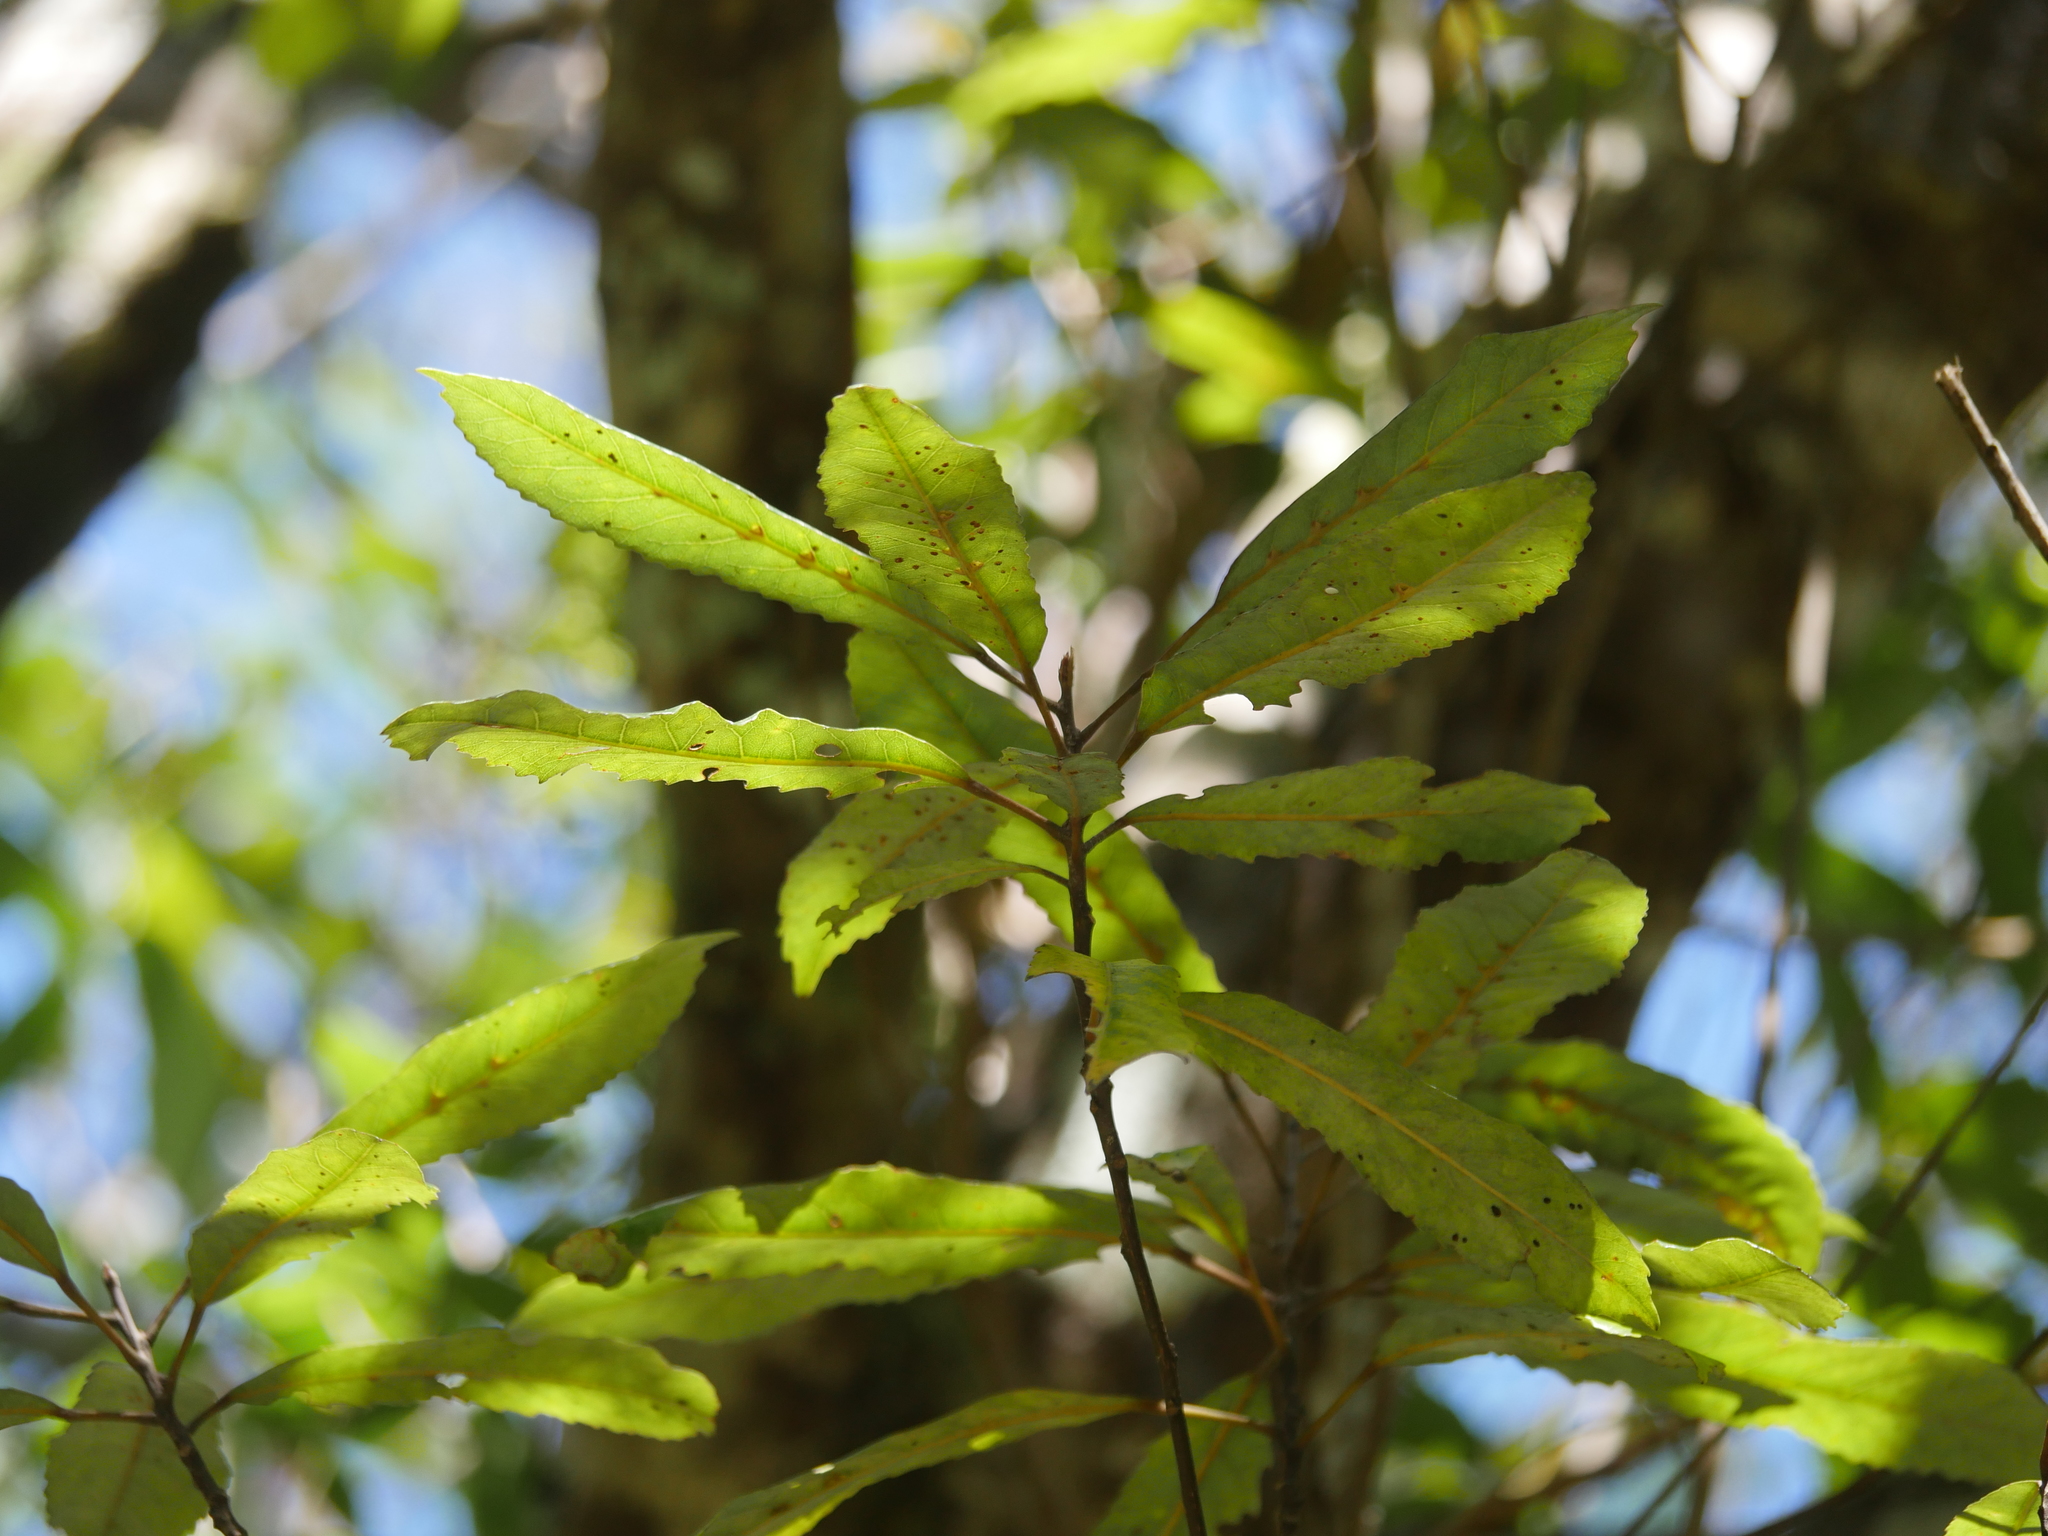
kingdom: Plantae
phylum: Tracheophyta
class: Magnoliopsida
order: Oxalidales
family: Elaeocarpaceae
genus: Elaeocarpus
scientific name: Elaeocarpus dentatus
